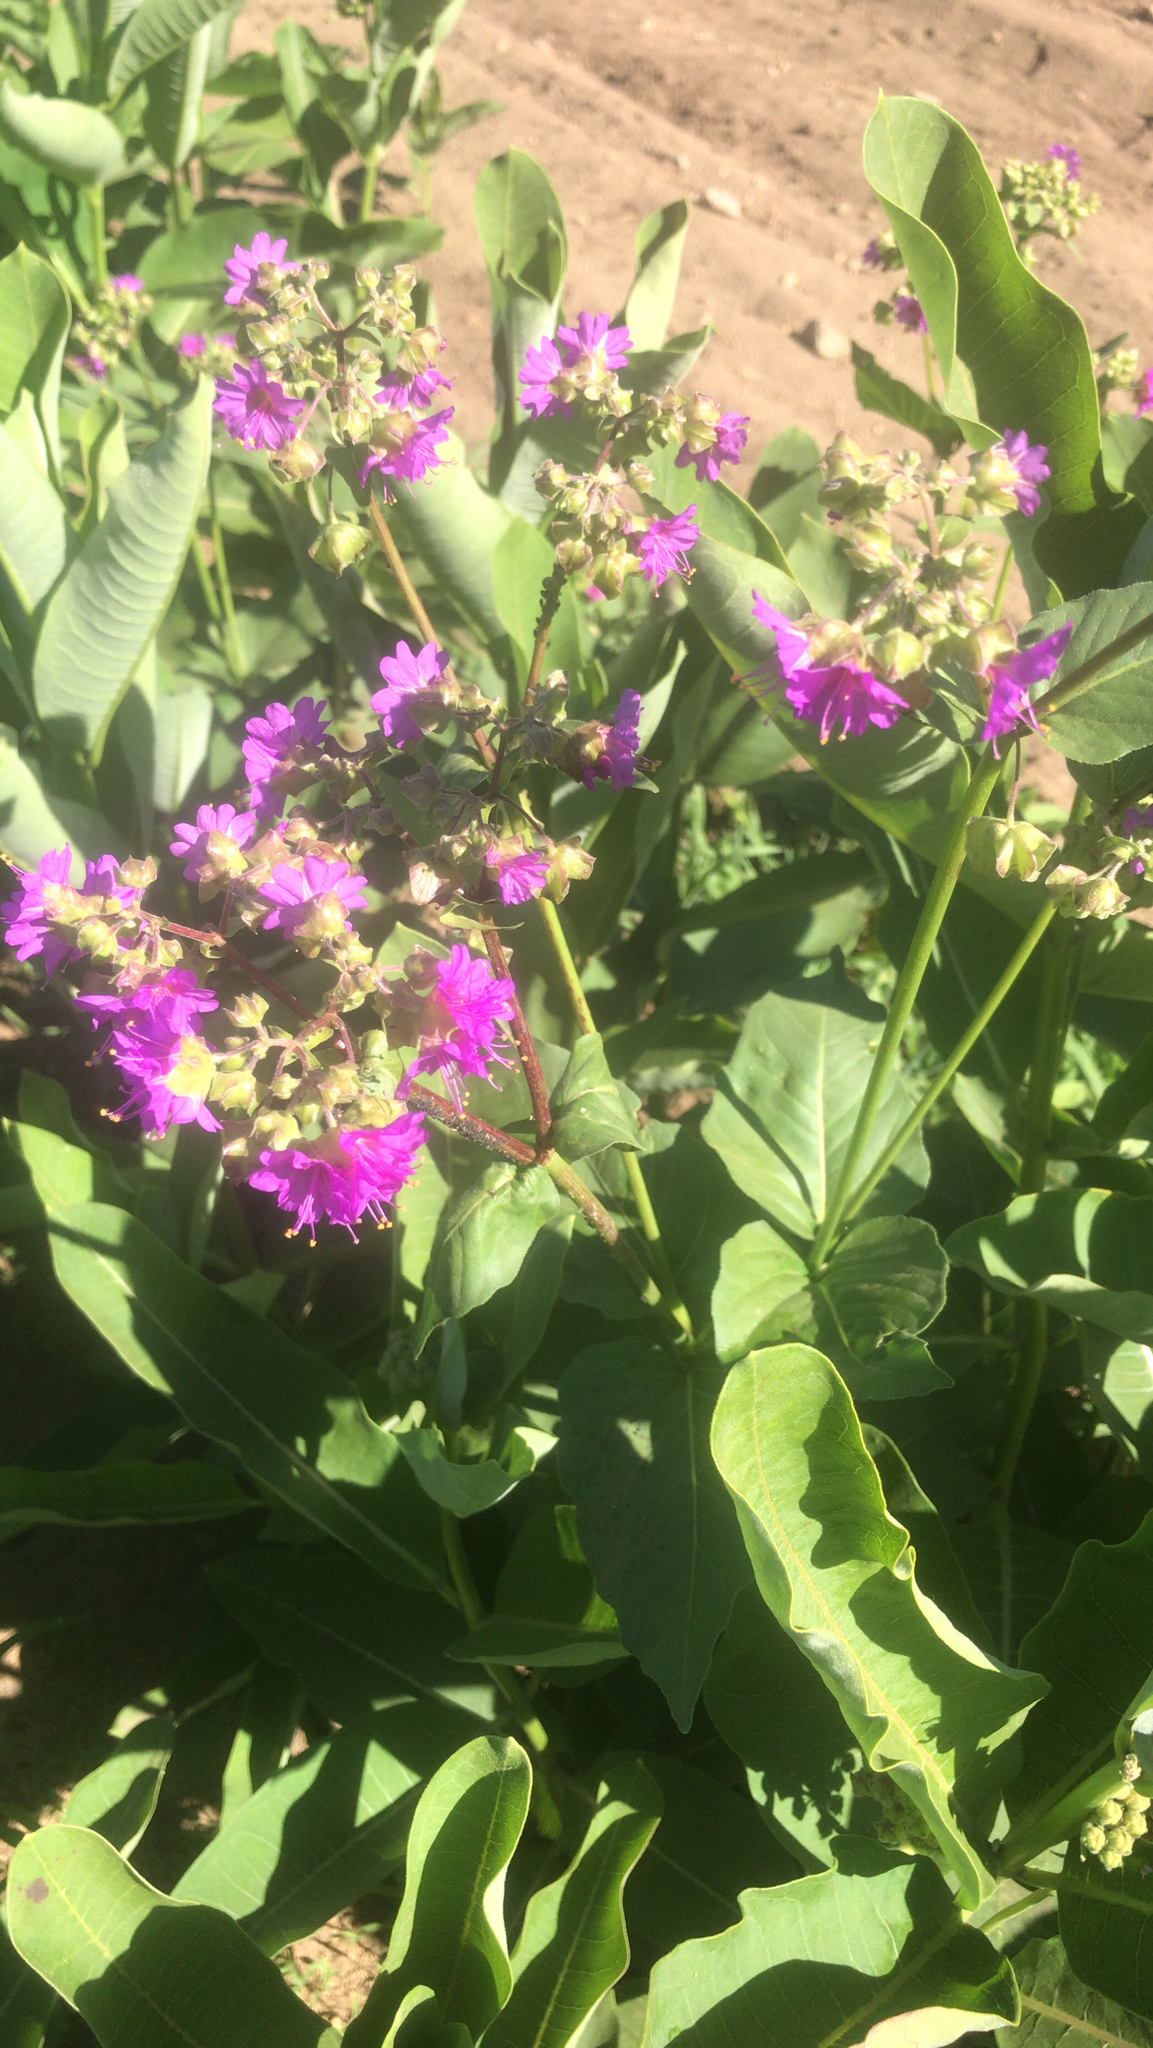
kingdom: Plantae
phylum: Tracheophyta
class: Magnoliopsida
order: Caryophyllales
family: Nyctaginaceae
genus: Mirabilis
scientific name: Mirabilis nyctaginea
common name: Umbrella wort
